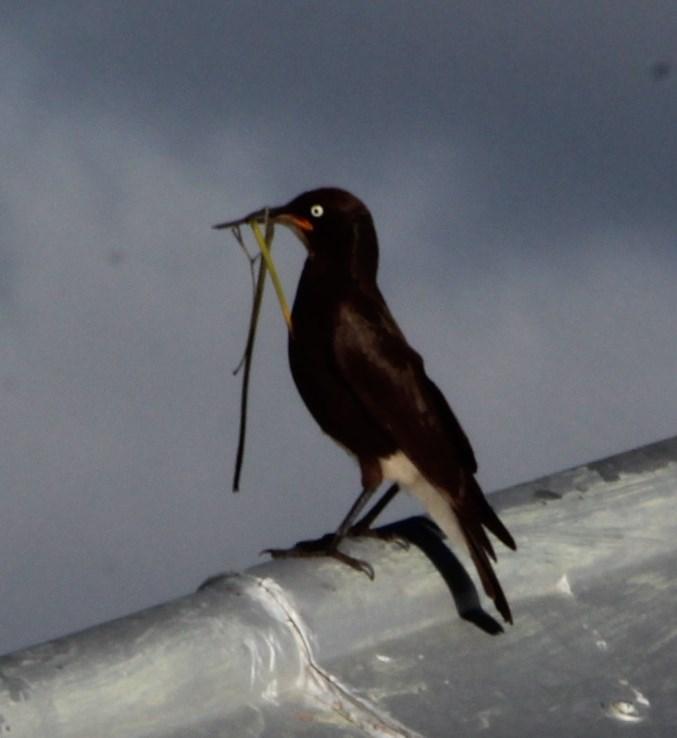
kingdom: Animalia
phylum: Chordata
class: Aves
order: Passeriformes
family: Sturnidae
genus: Lamprotornis
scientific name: Lamprotornis bicolor
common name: Pied starling
